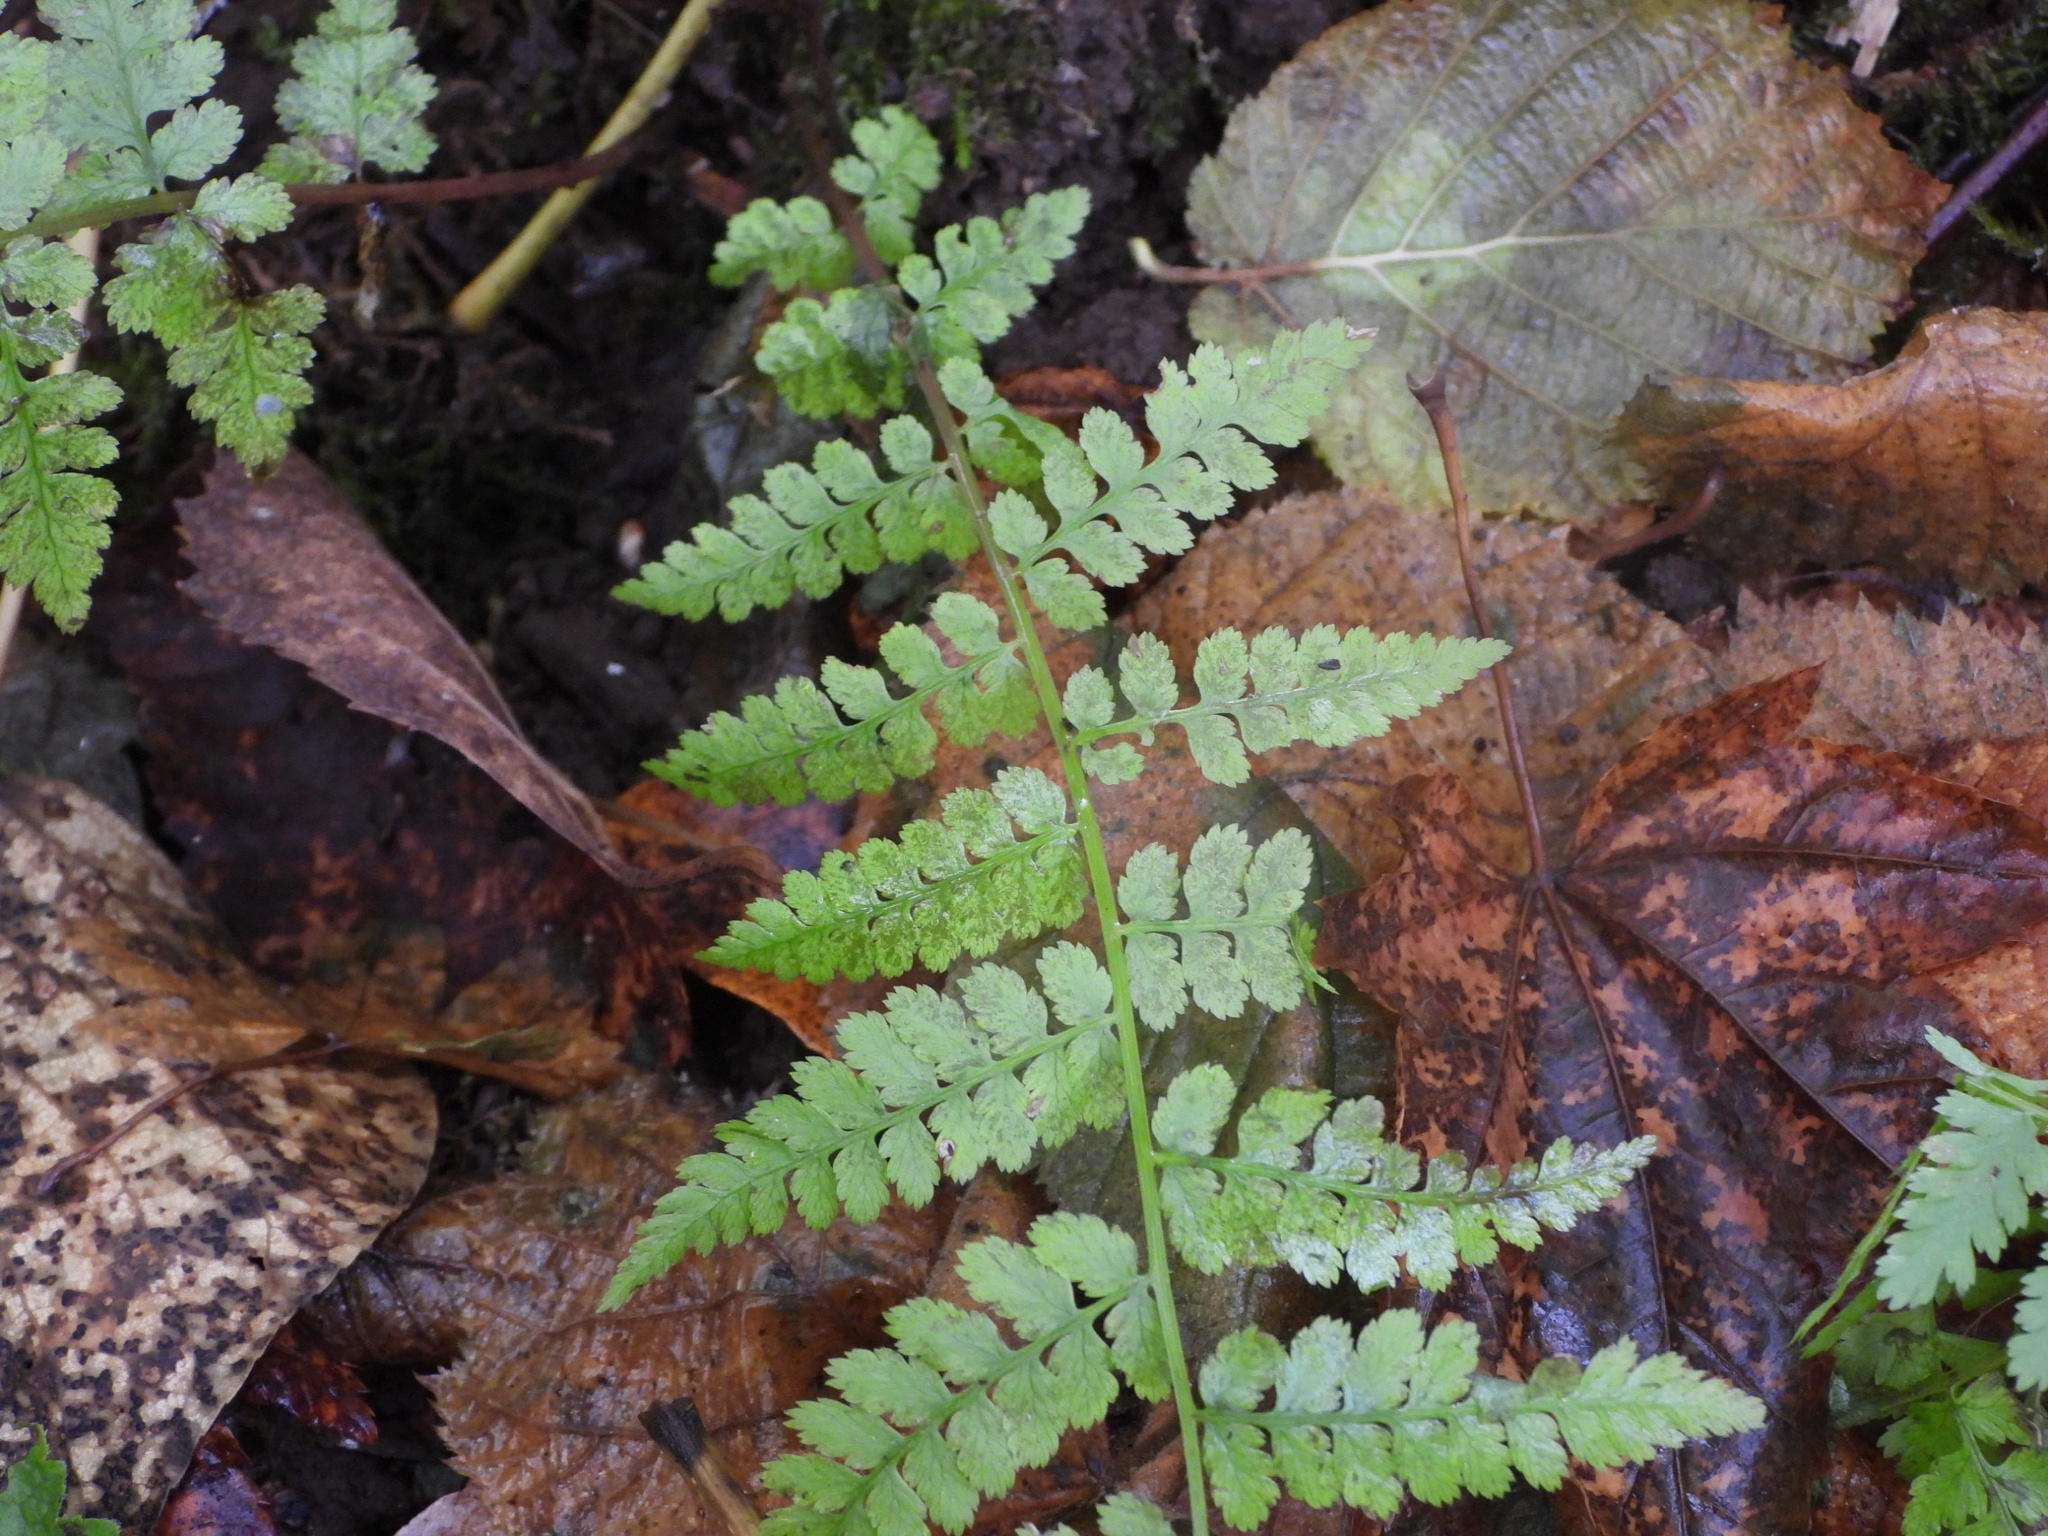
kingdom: Plantae
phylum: Tracheophyta
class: Polypodiopsida
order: Polypodiales
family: Athyriaceae
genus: Athyrium
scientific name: Athyrium filix-femina
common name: Lady fern
